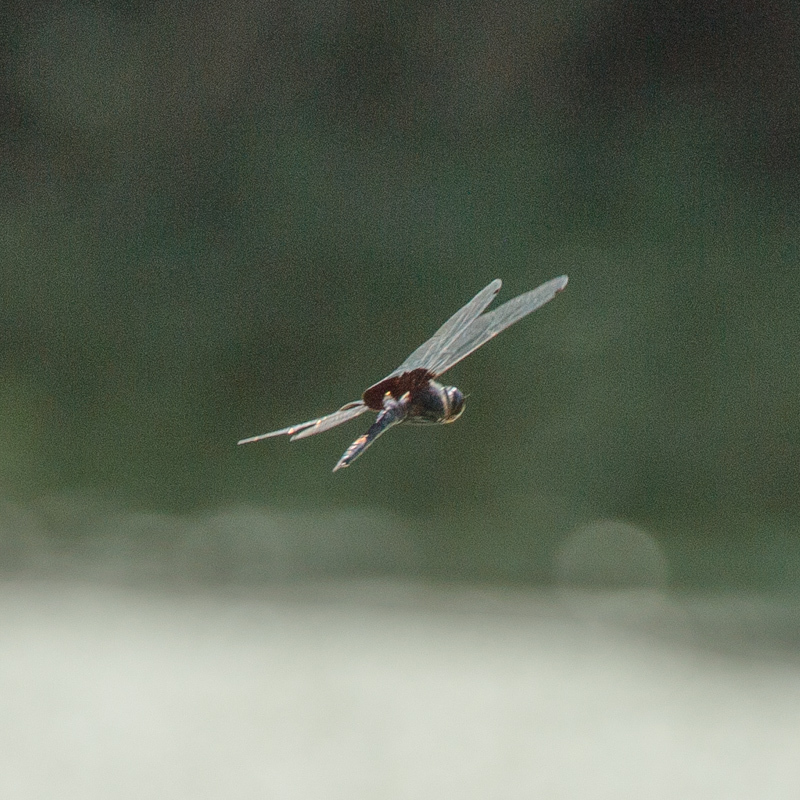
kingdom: Animalia
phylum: Arthropoda
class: Insecta
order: Odonata
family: Libellulidae
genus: Tramea
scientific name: Tramea lacerata
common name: Black saddlebags
